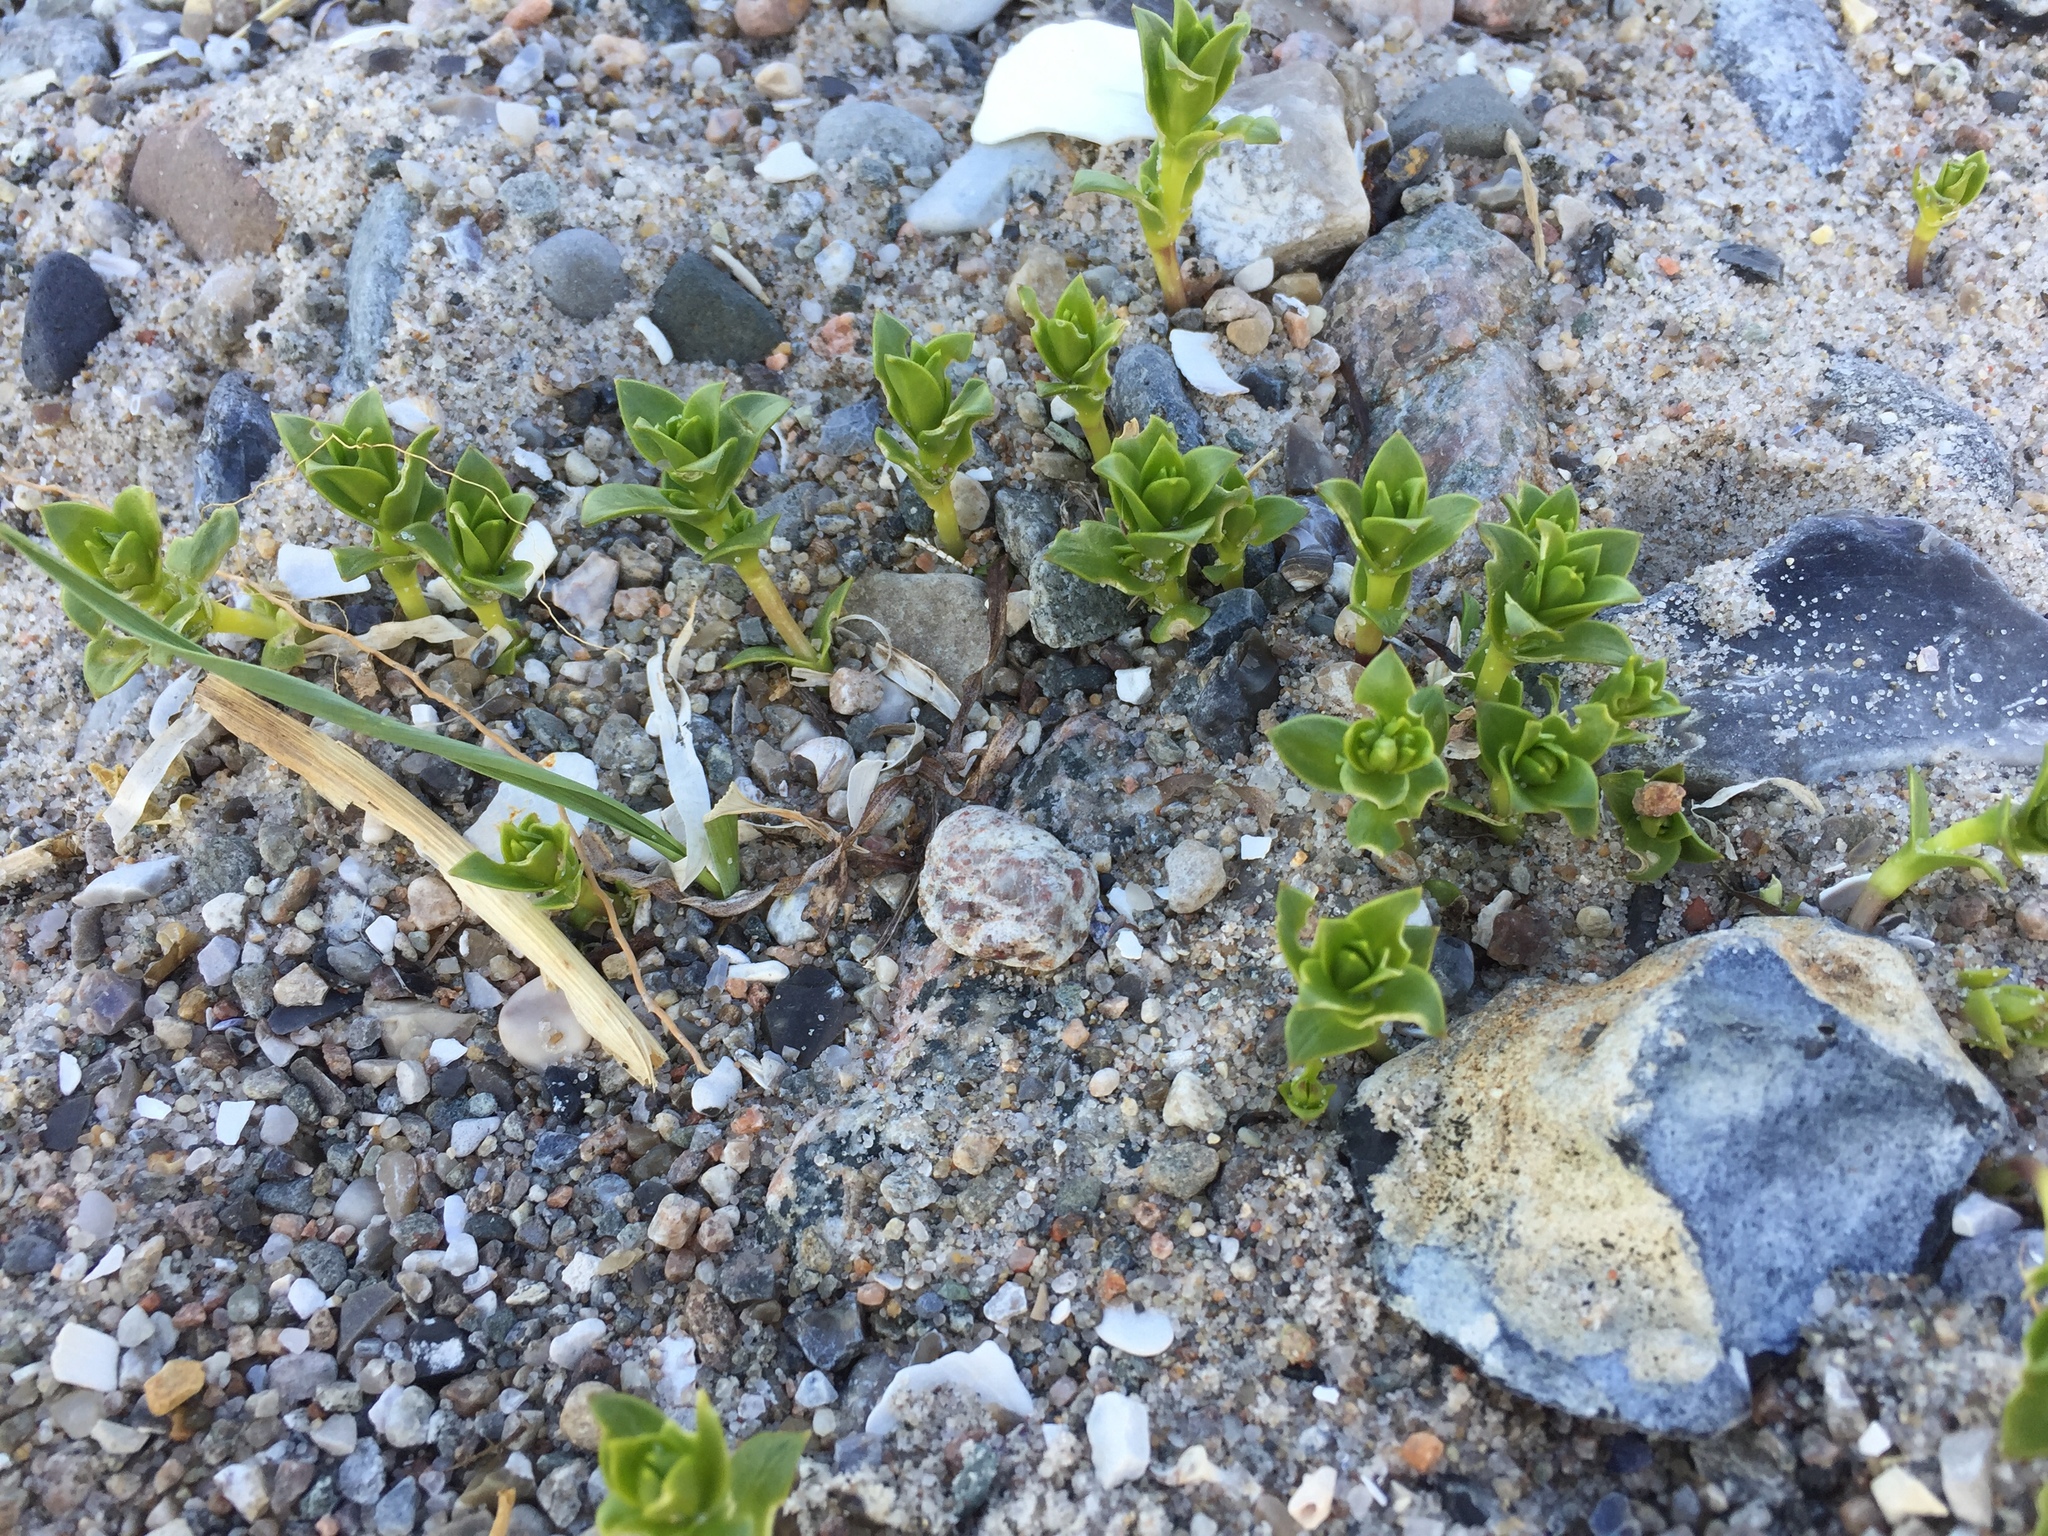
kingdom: Plantae
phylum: Tracheophyta
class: Magnoliopsida
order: Caryophyllales
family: Caryophyllaceae
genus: Honckenya
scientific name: Honckenya peploides
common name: Sea sandwort
